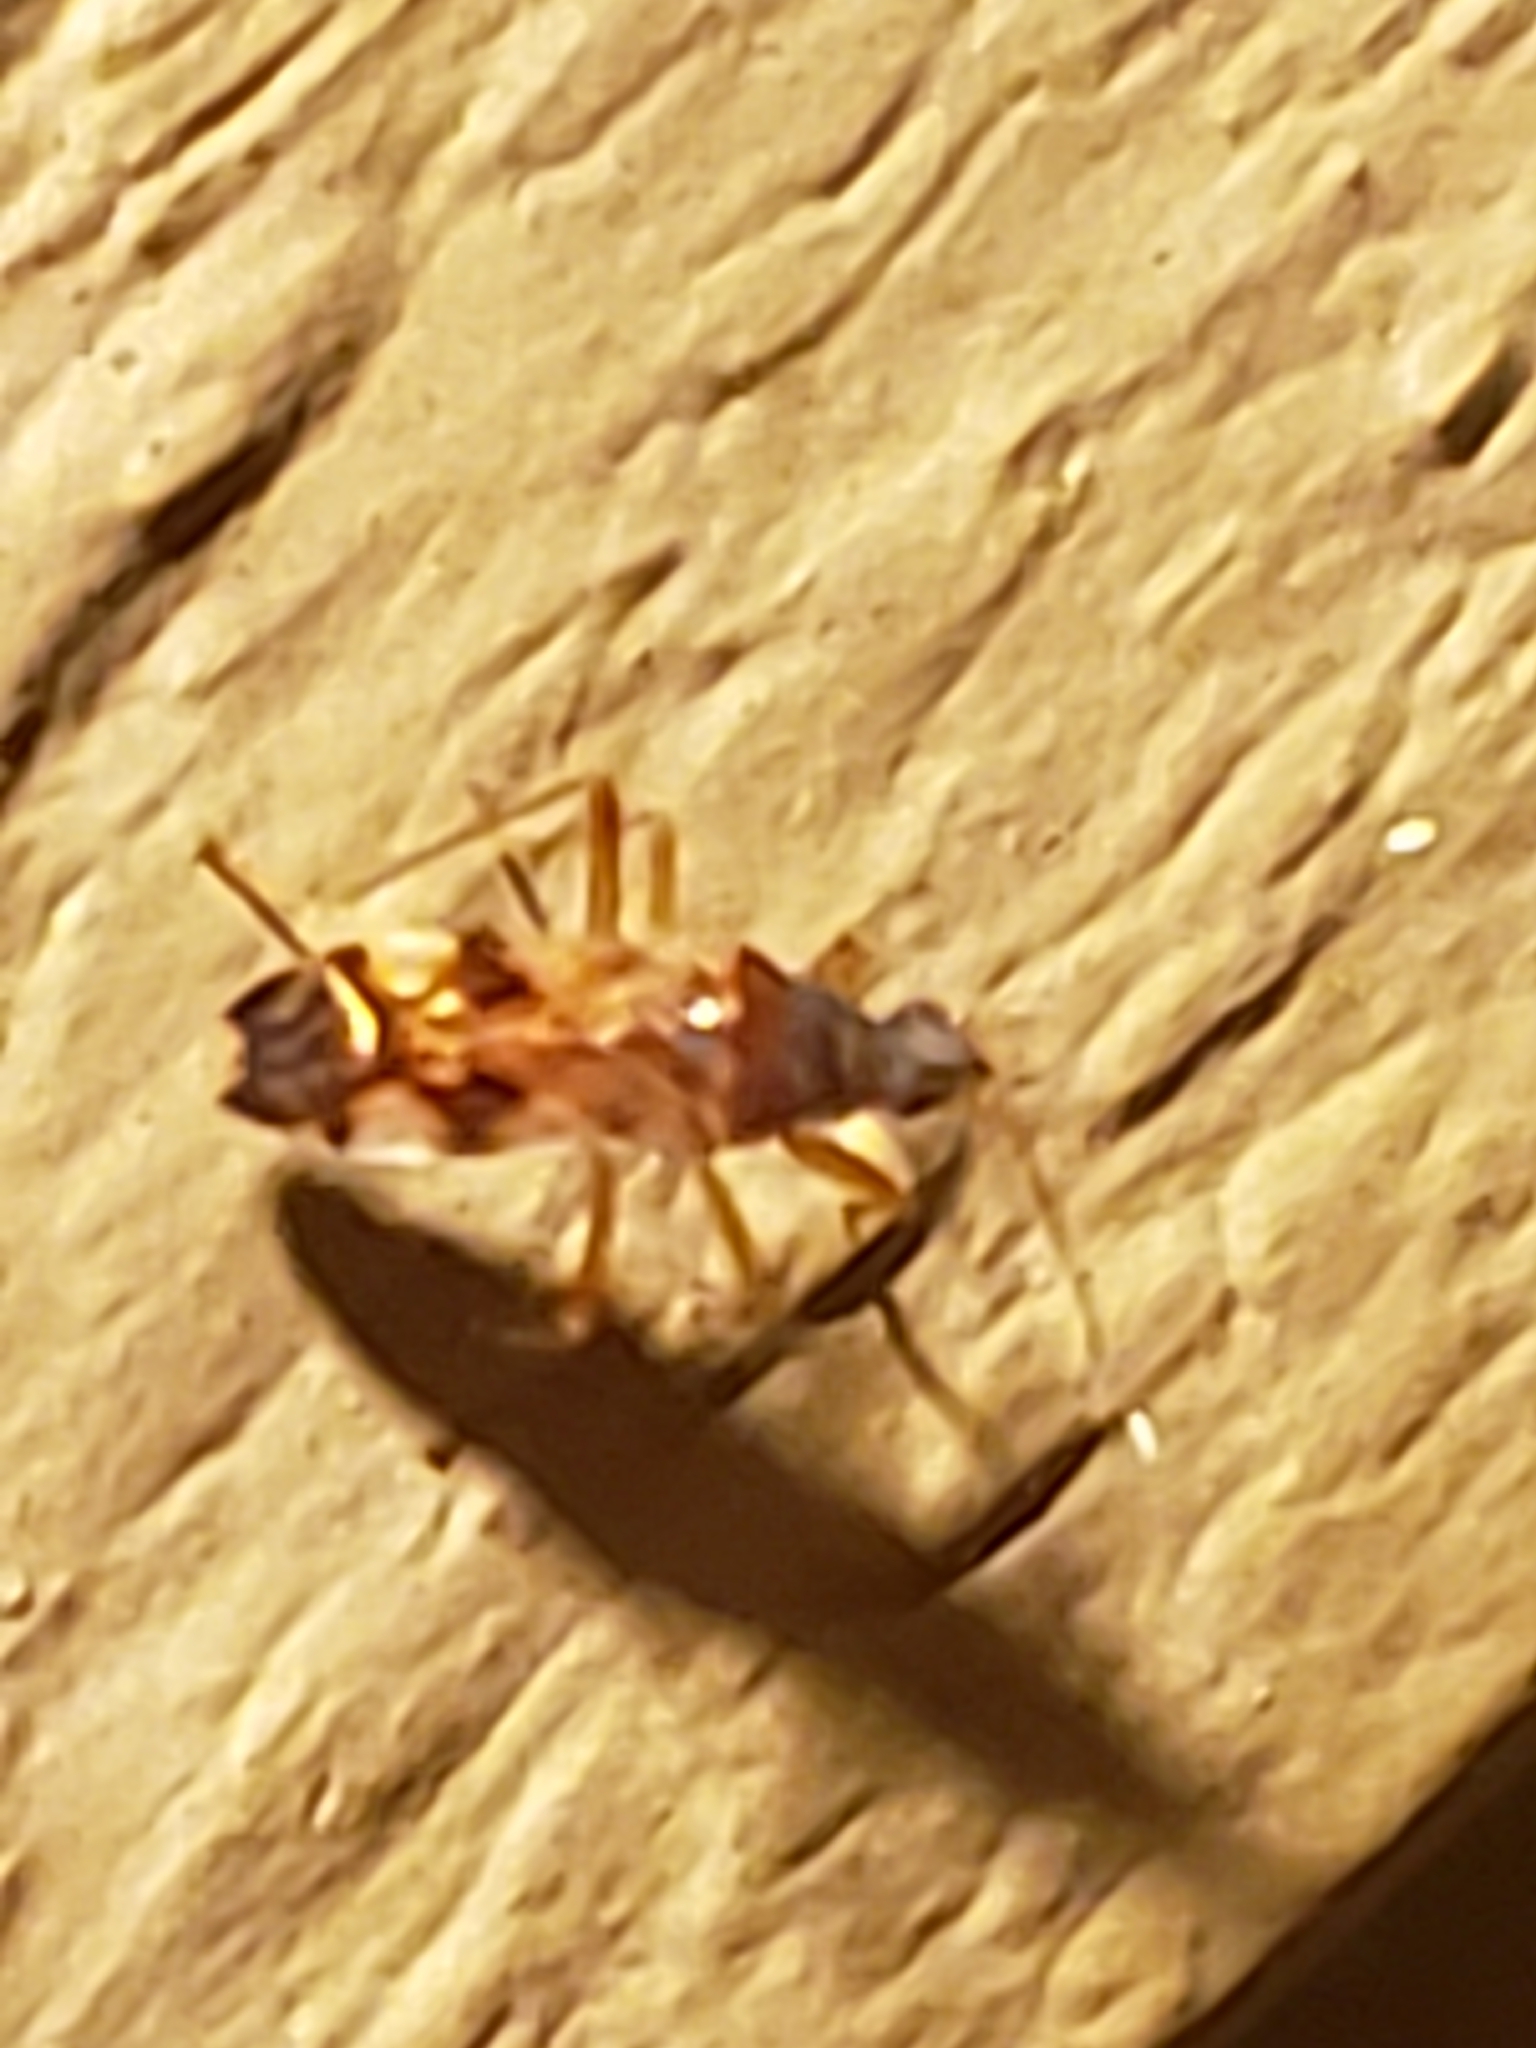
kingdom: Animalia
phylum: Arthropoda
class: Insecta
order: Hemiptera
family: Rhyparochromidae
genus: Ozophora
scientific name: Ozophora picturata
